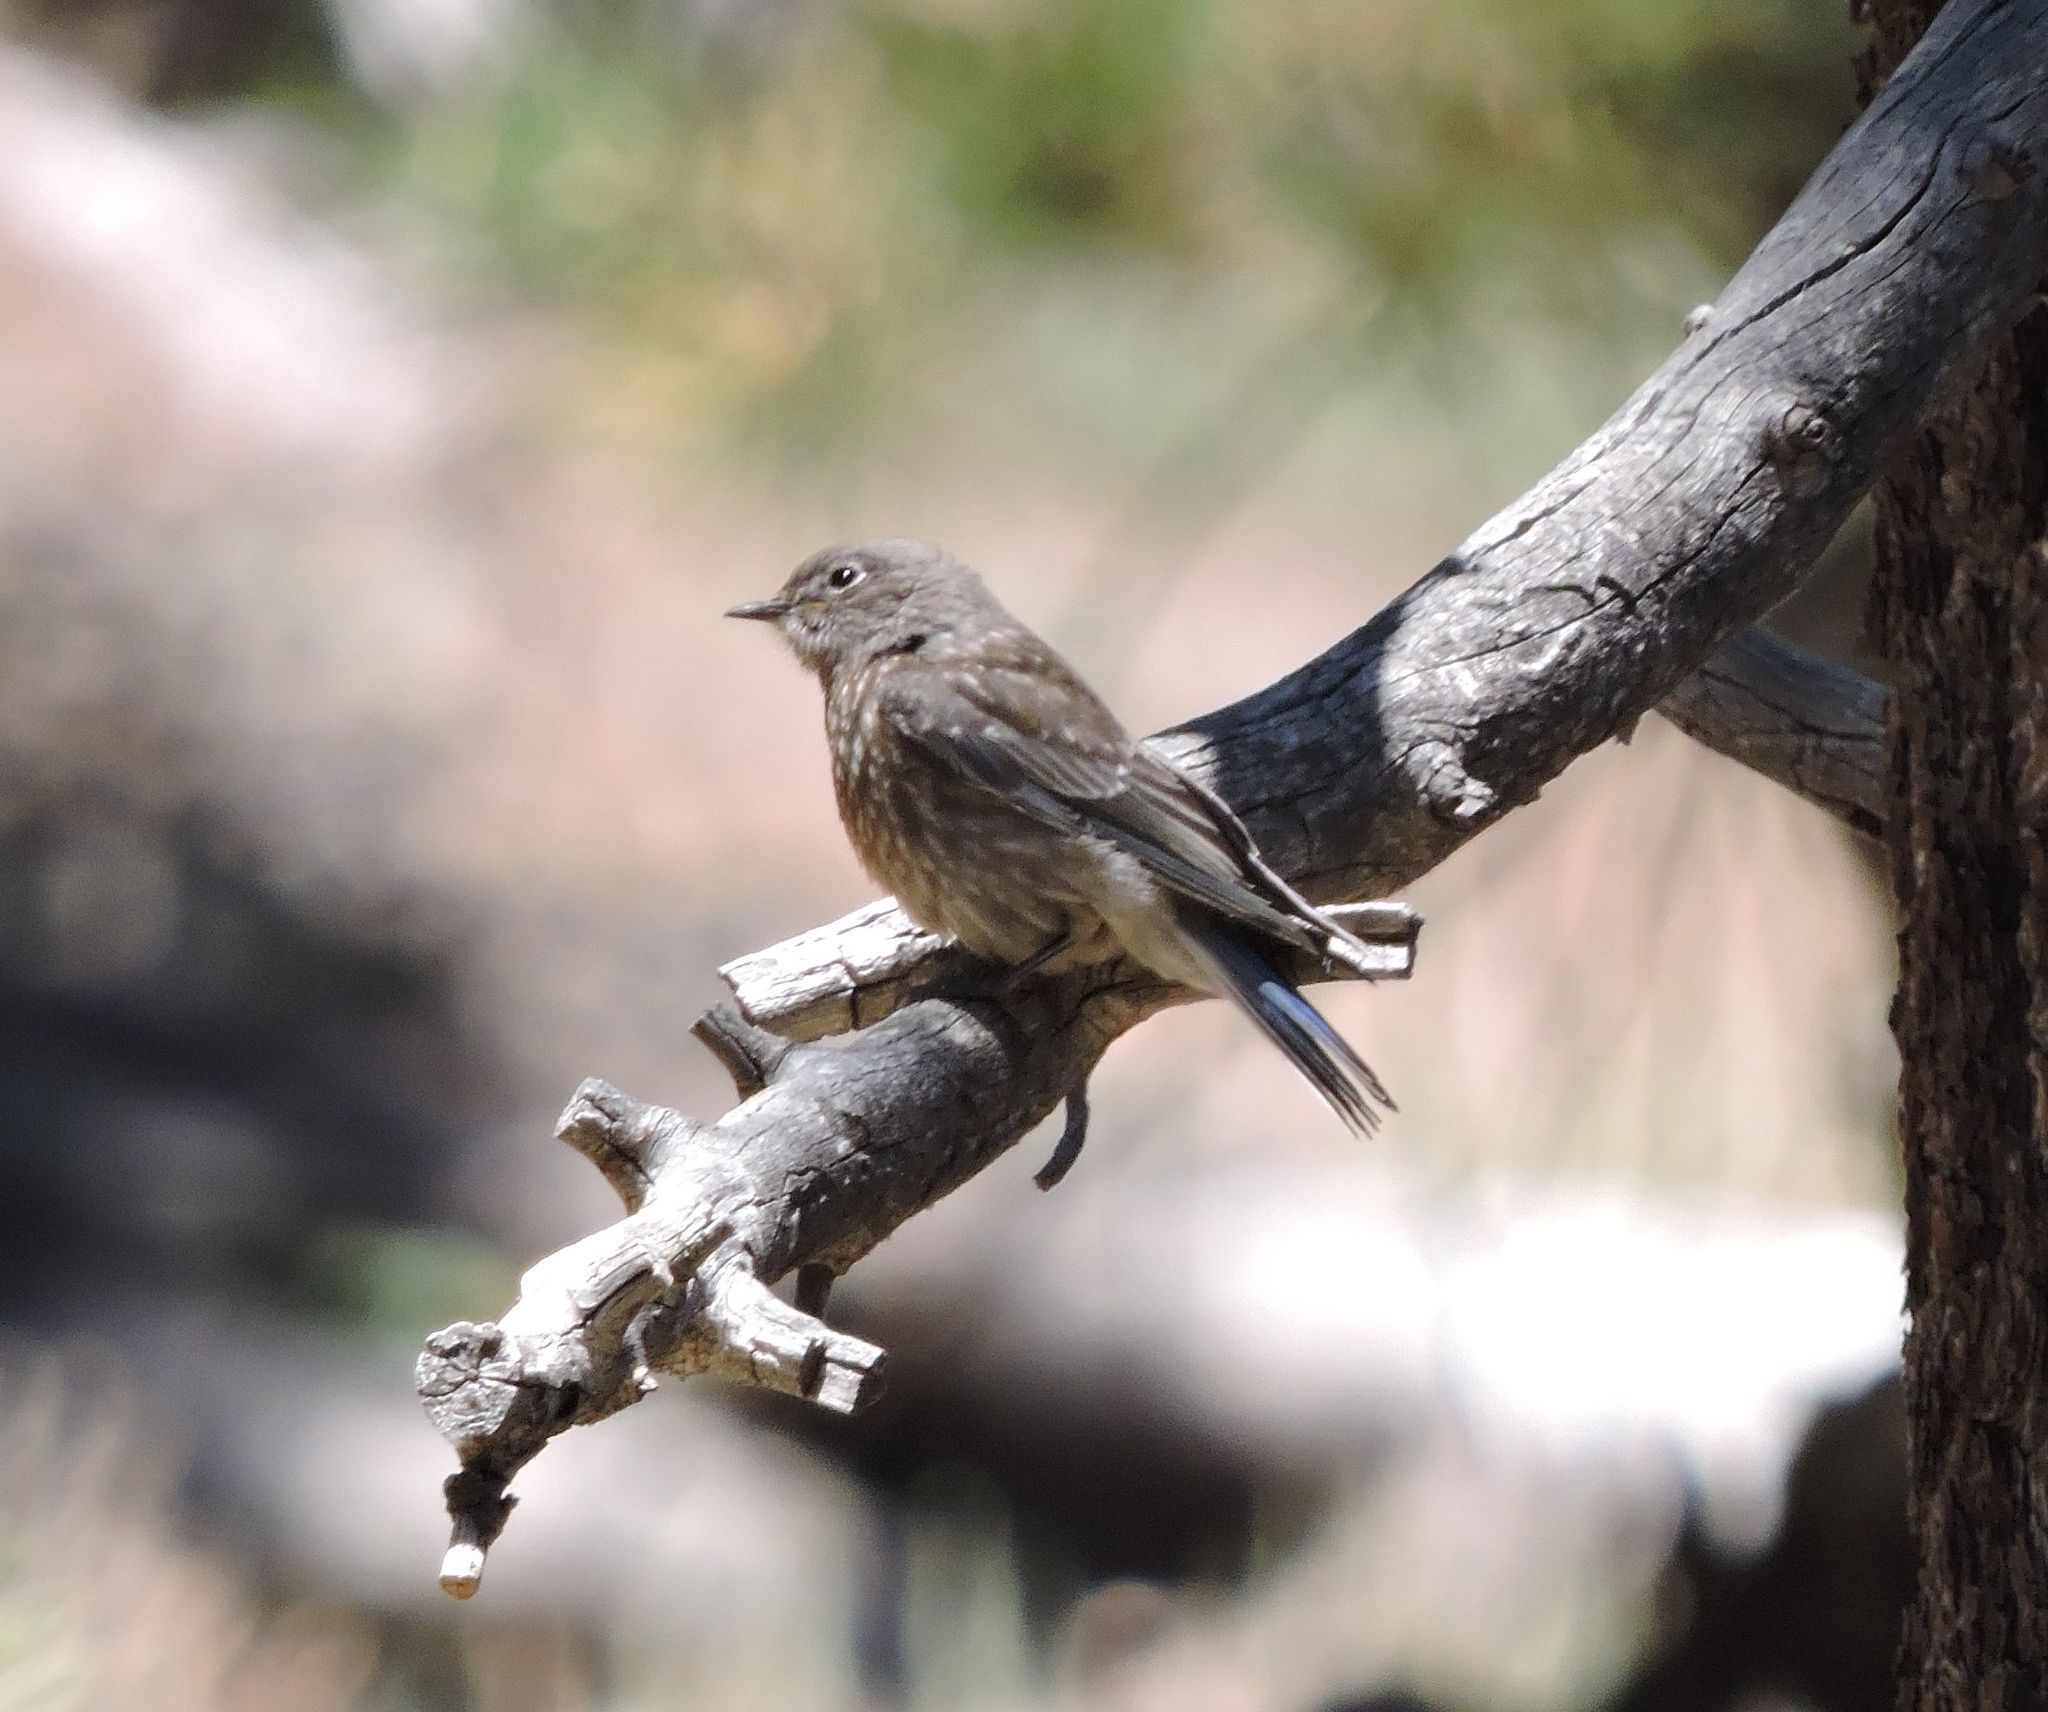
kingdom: Animalia
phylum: Chordata
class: Aves
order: Passeriformes
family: Turdidae
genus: Sialia
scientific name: Sialia mexicana
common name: Western bluebird
